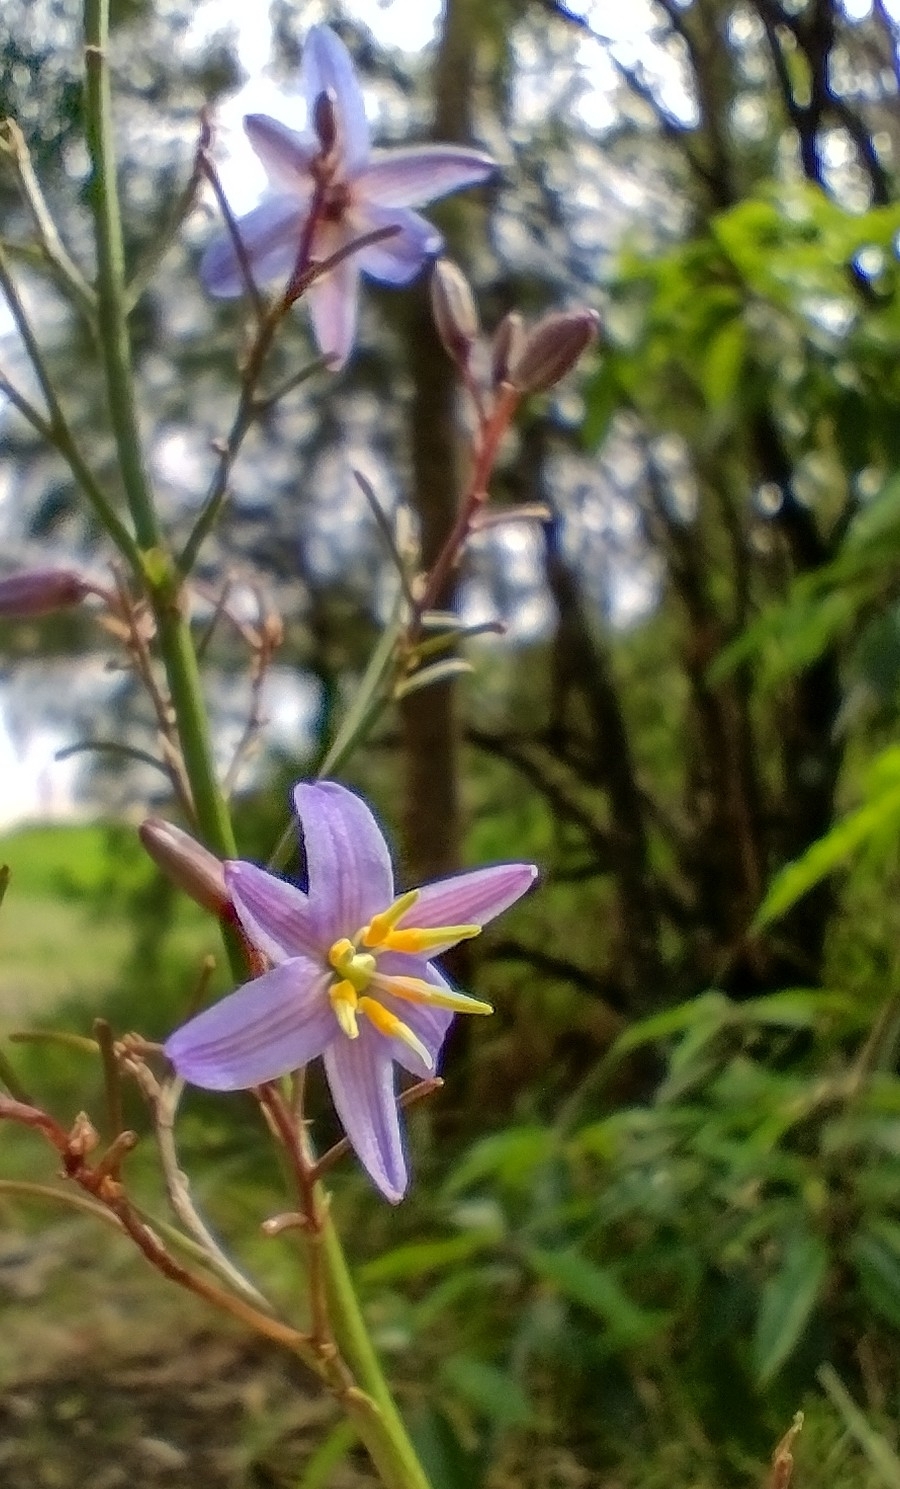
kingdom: Plantae
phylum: Tracheophyta
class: Liliopsida
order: Asparagales
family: Asphodelaceae
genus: Dianella
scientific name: Dianella caerulea
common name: Blue flax-lily
